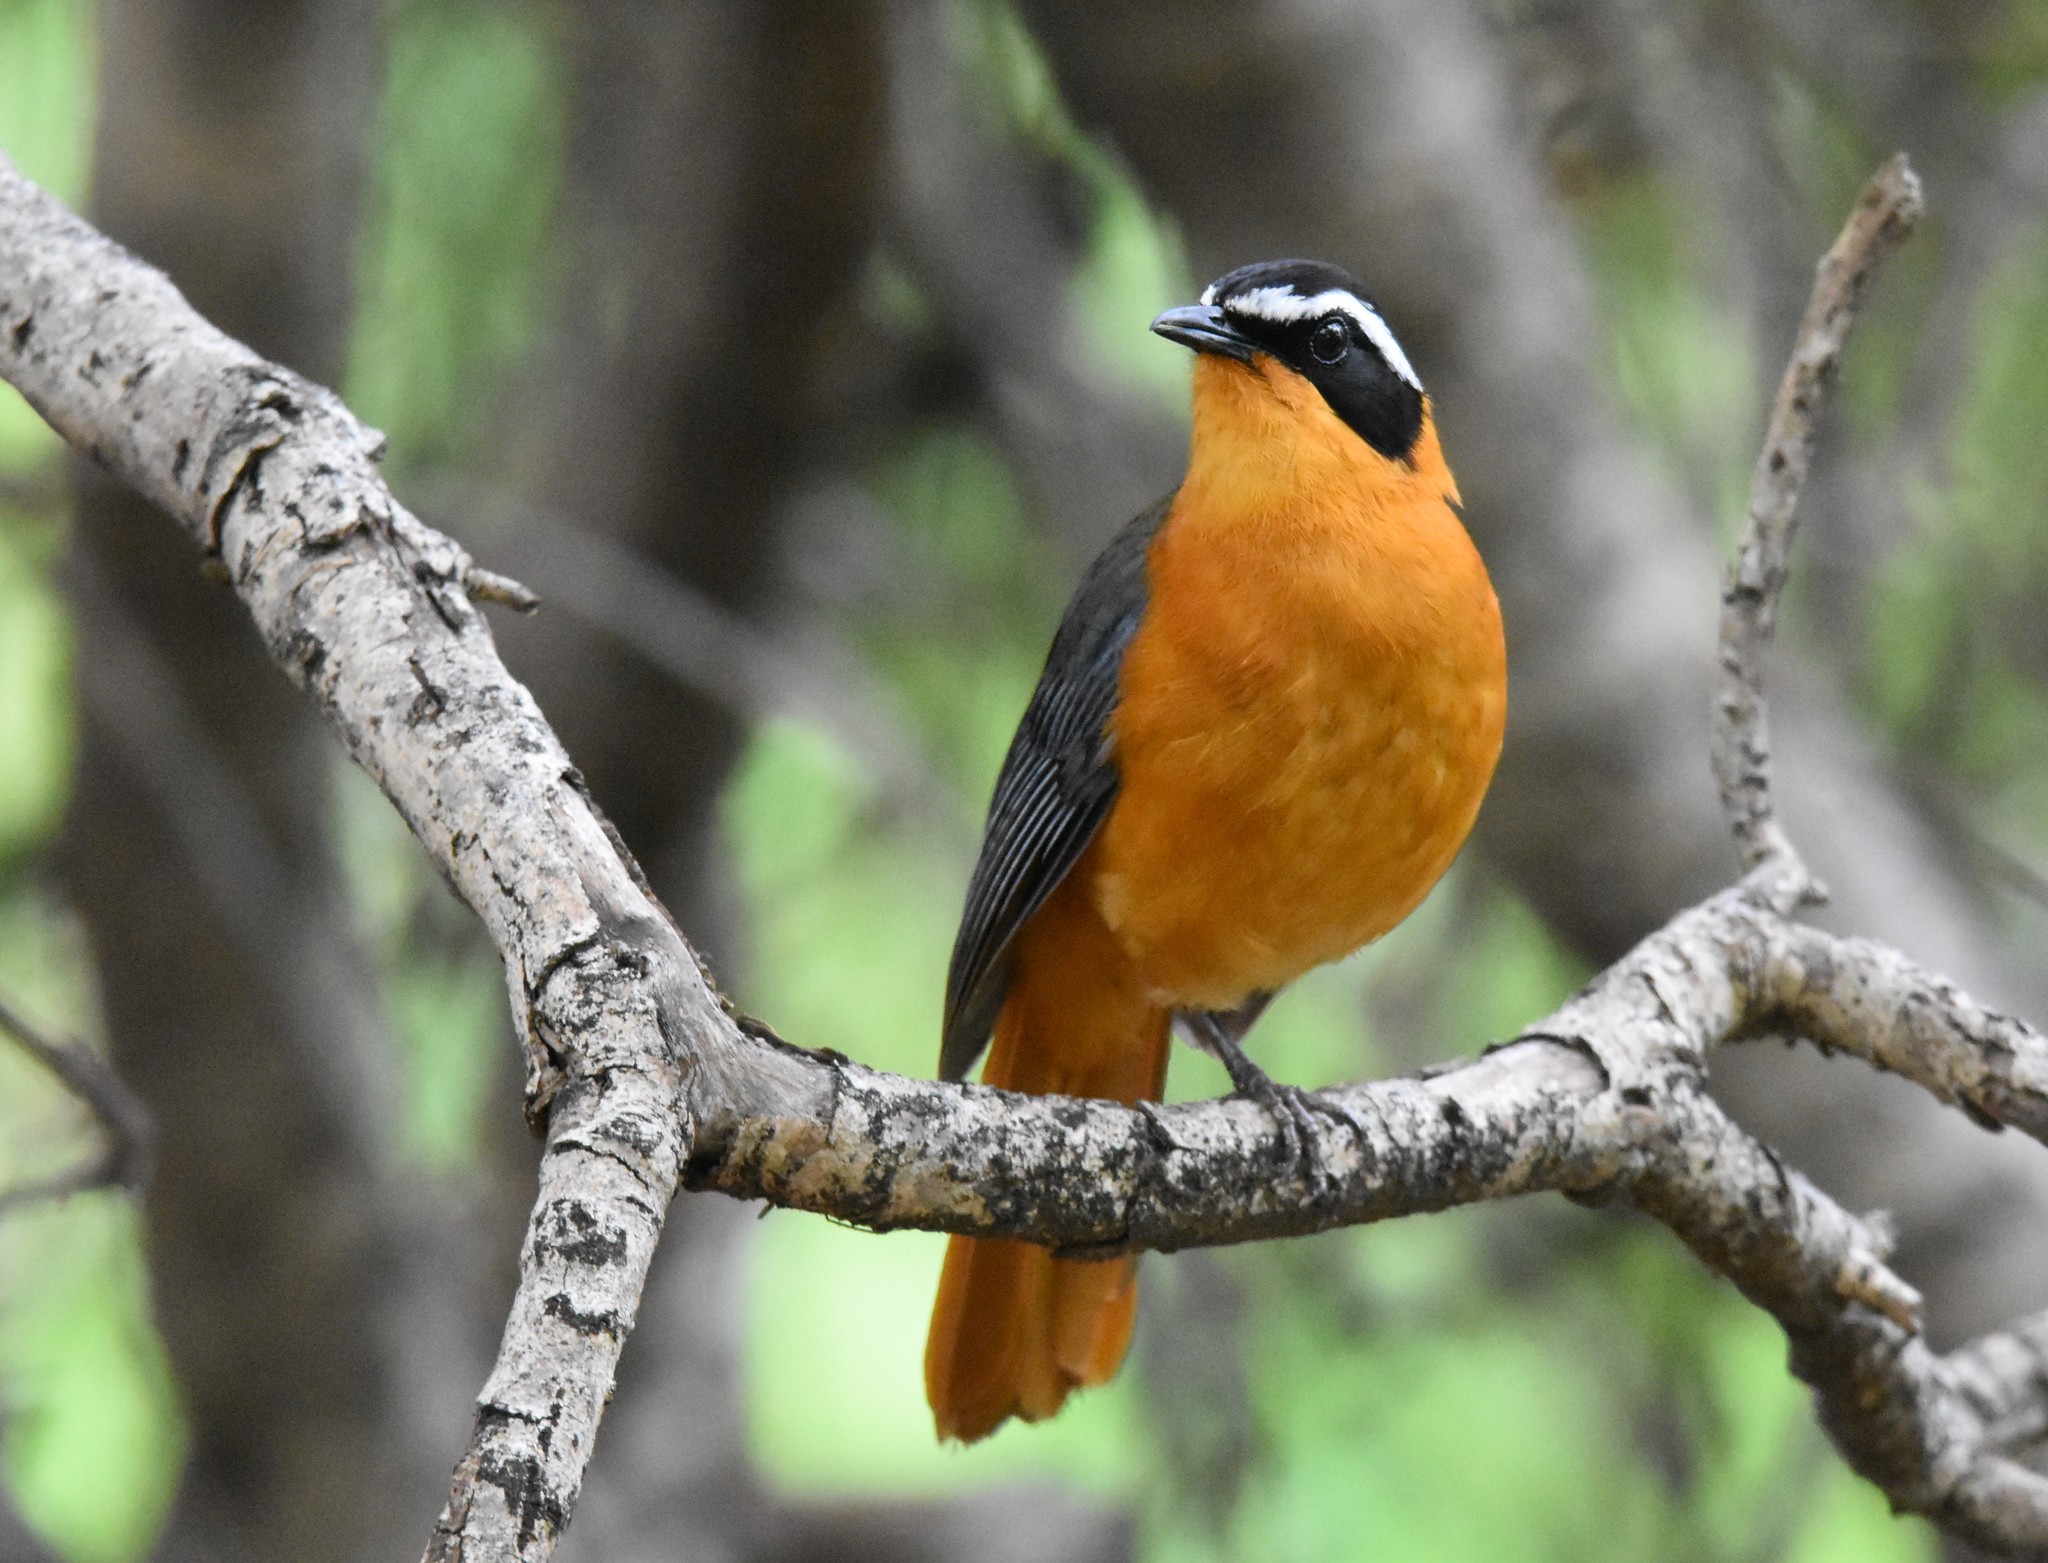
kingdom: Animalia
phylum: Chordata
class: Aves
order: Passeriformes
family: Muscicapidae
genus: Cossypha
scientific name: Cossypha heuglini
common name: White-browed robin-chat
